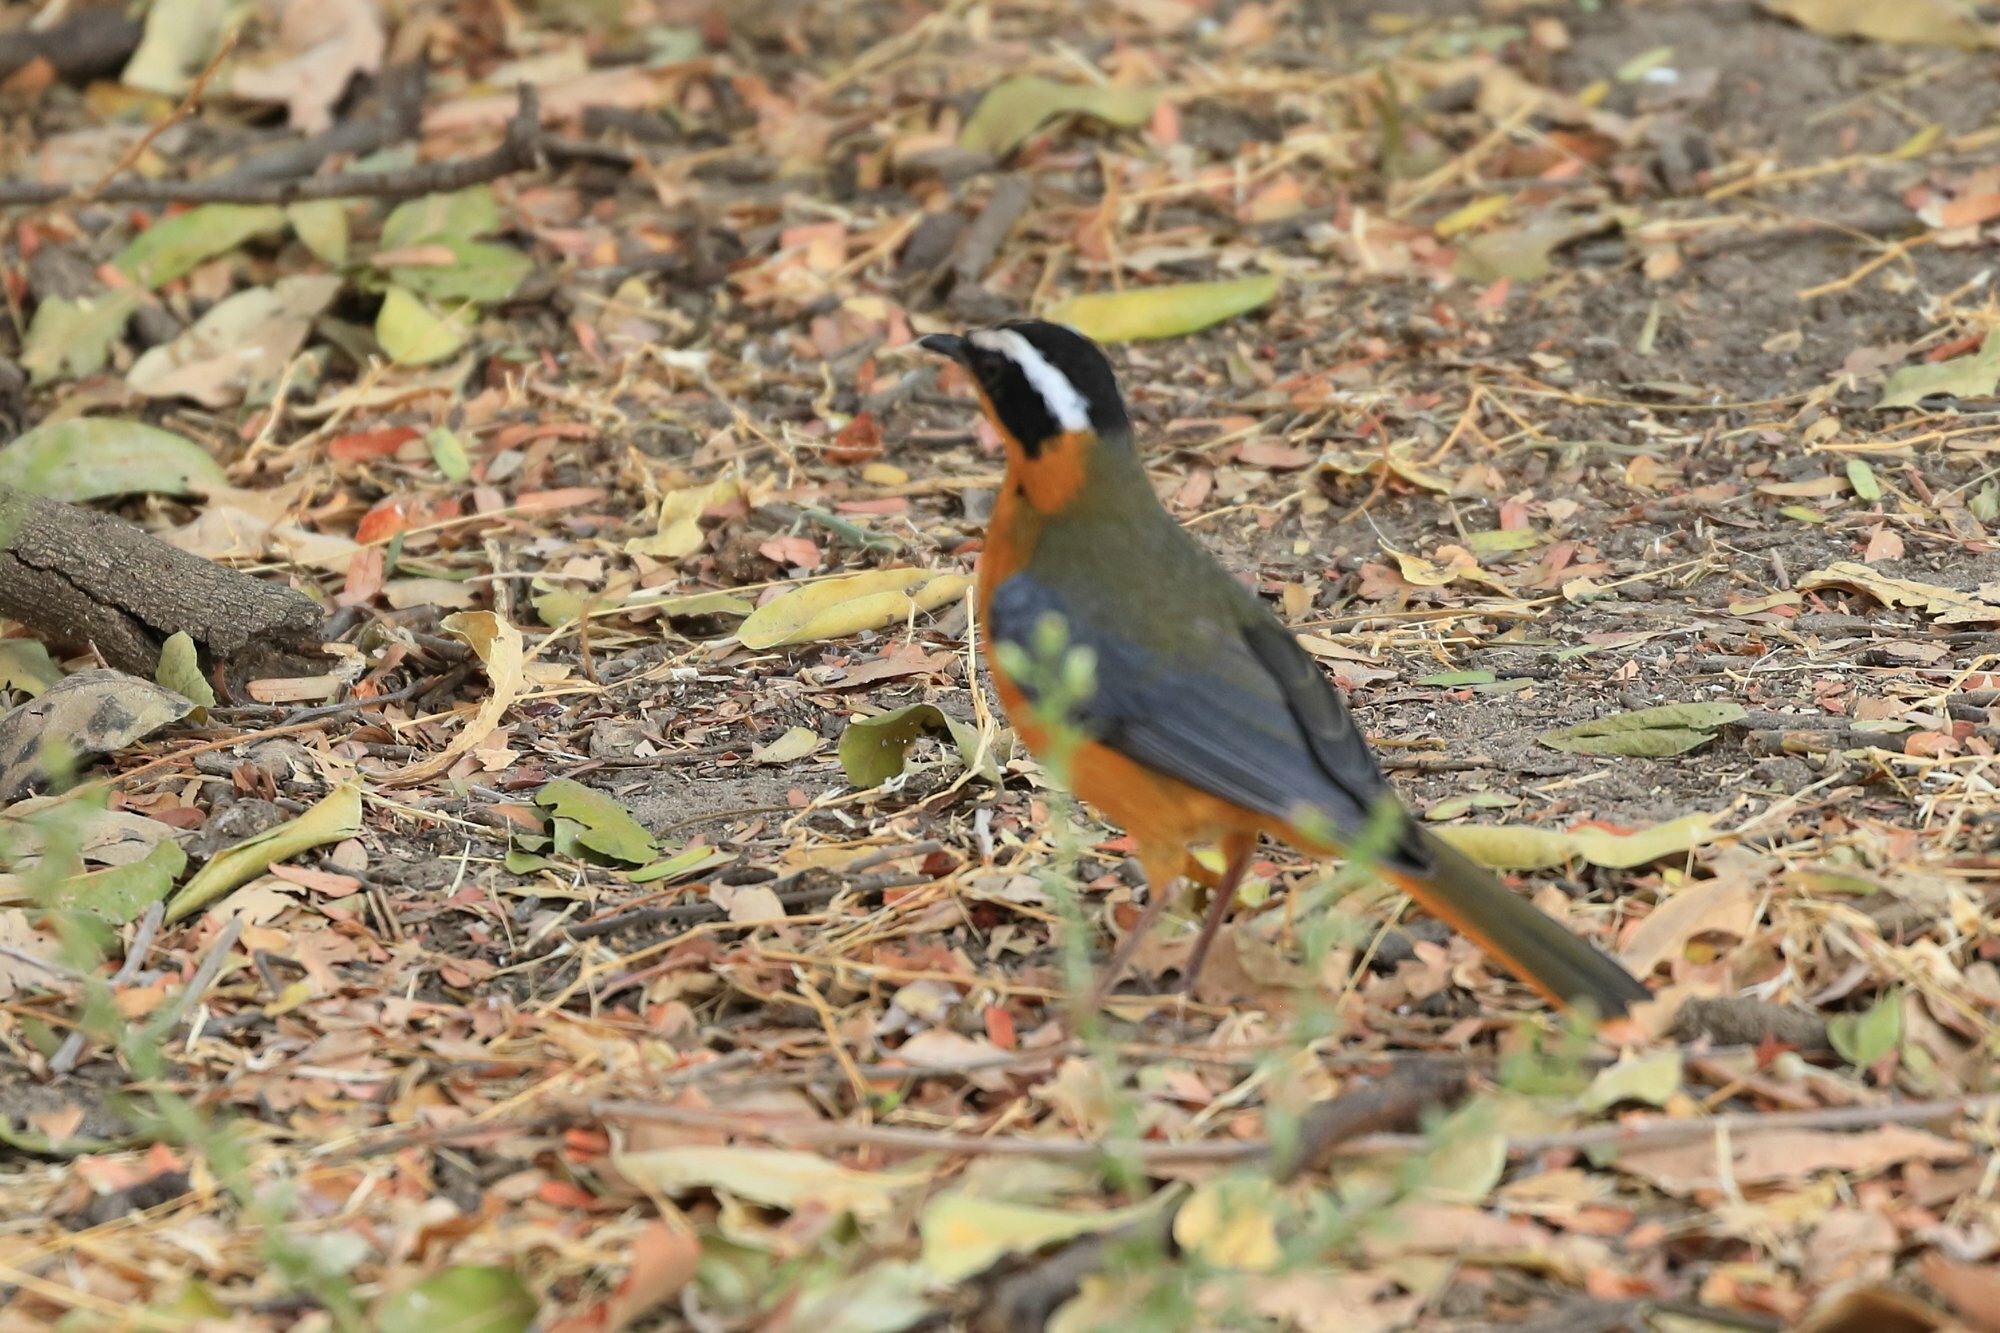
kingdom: Animalia
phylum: Chordata
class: Aves
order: Passeriformes
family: Muscicapidae
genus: Cossypha
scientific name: Cossypha heuglini
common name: White-browed robin-chat
